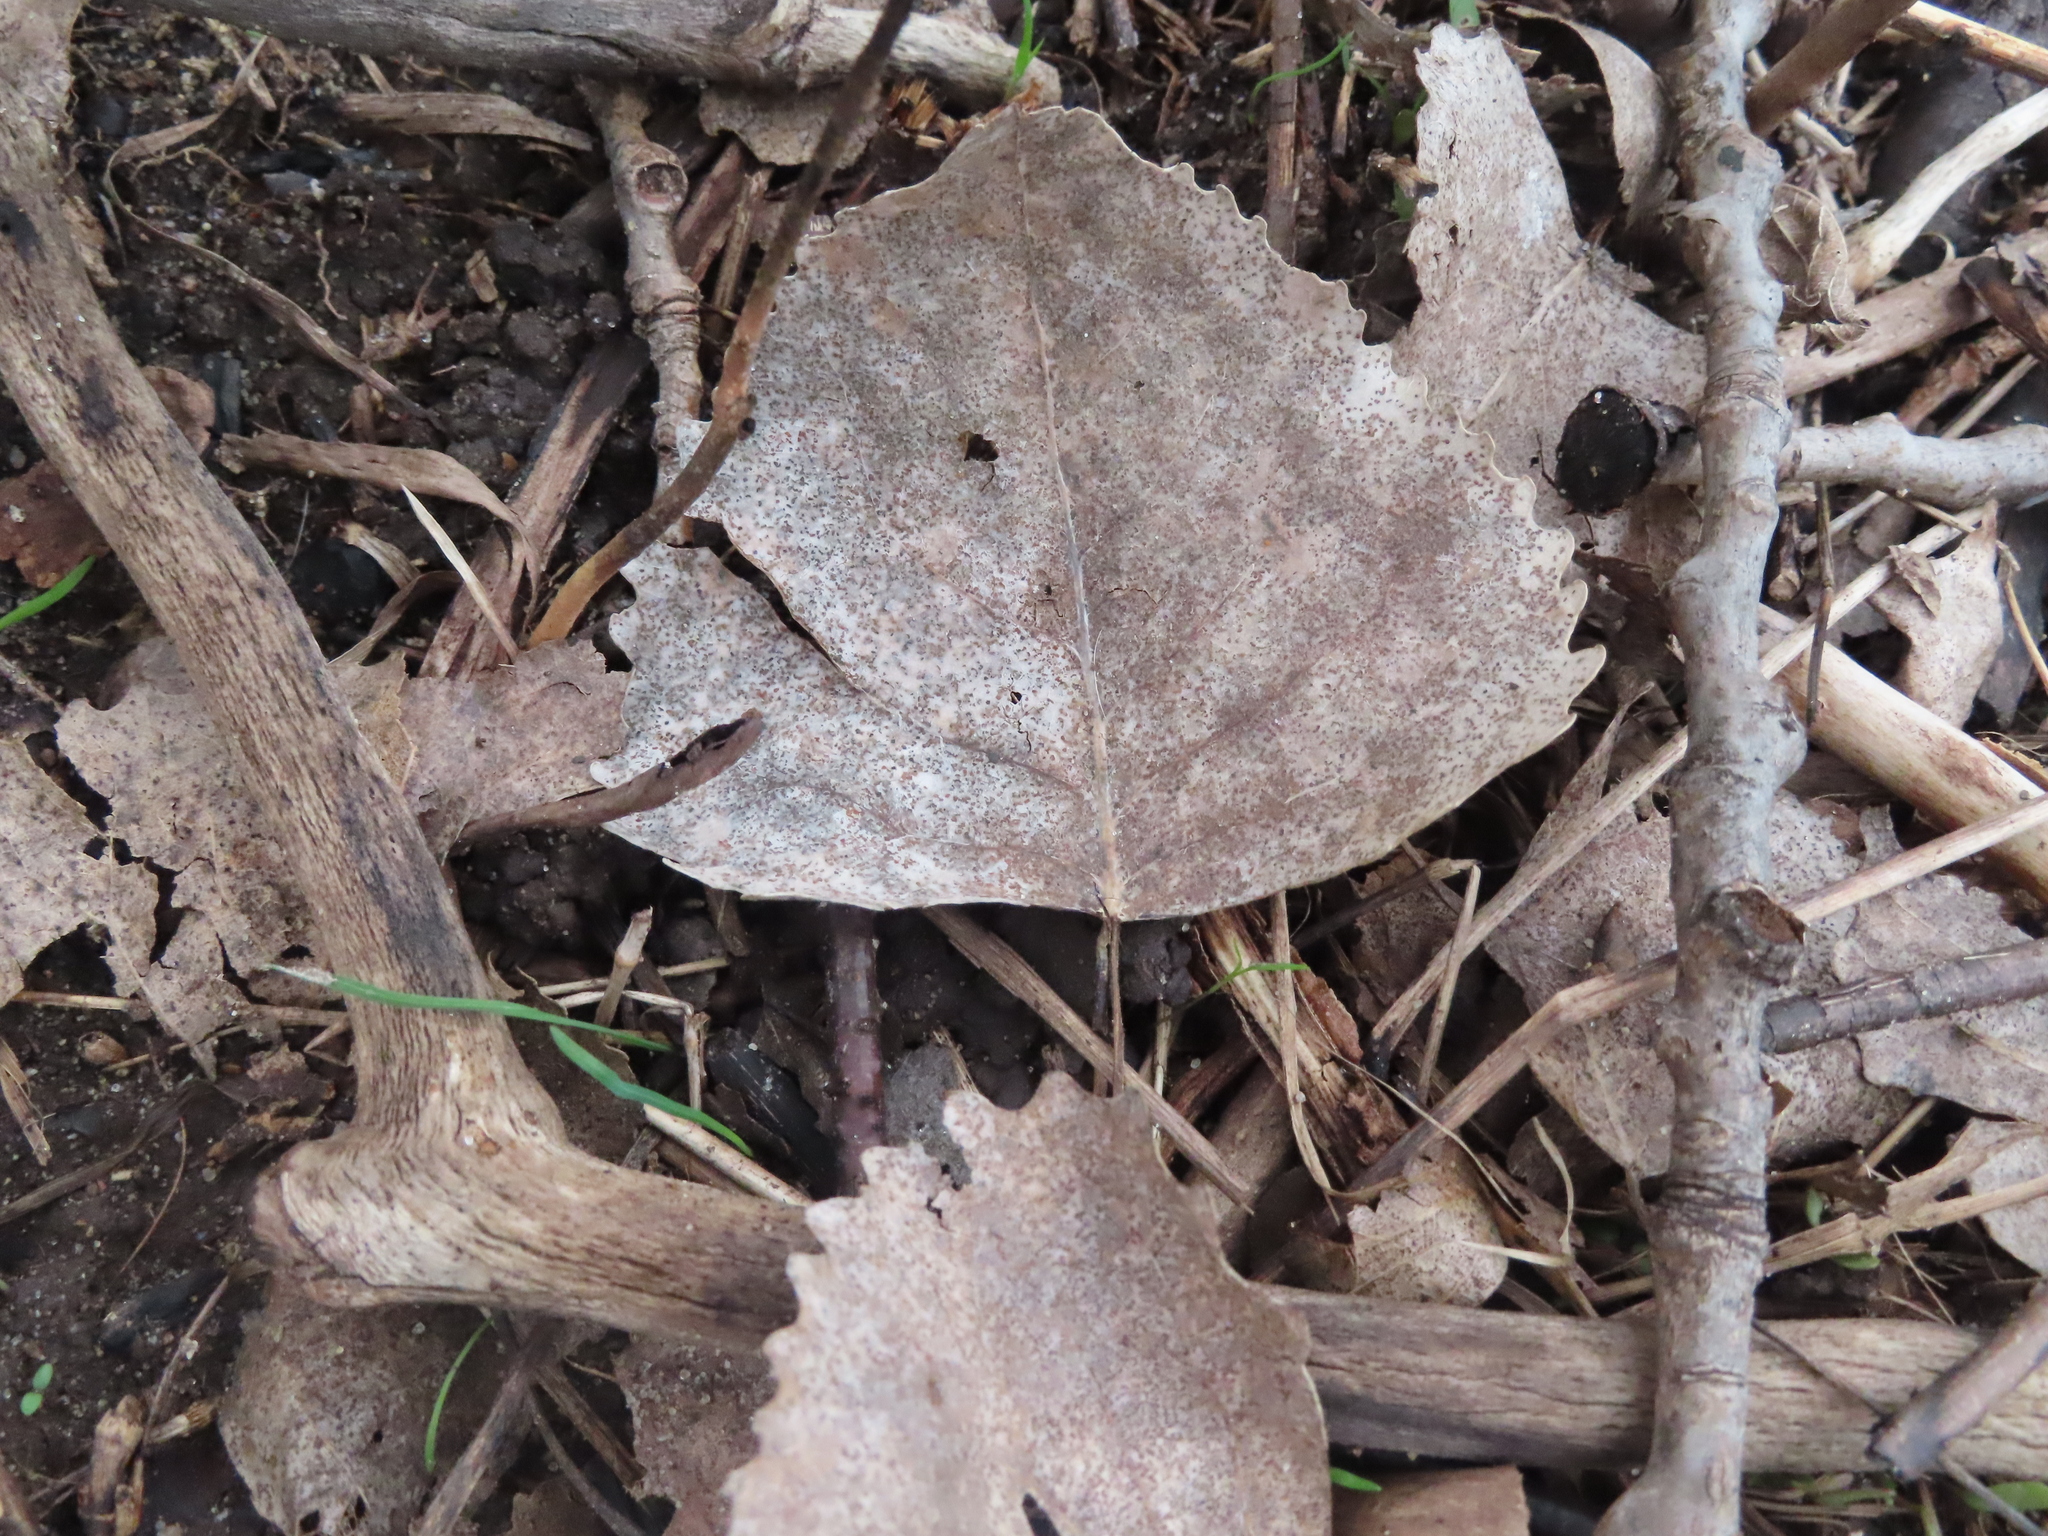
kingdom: Plantae
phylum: Tracheophyta
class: Magnoliopsida
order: Malpighiales
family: Salicaceae
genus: Populus
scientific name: Populus grandidentata
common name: Bigtooth aspen
